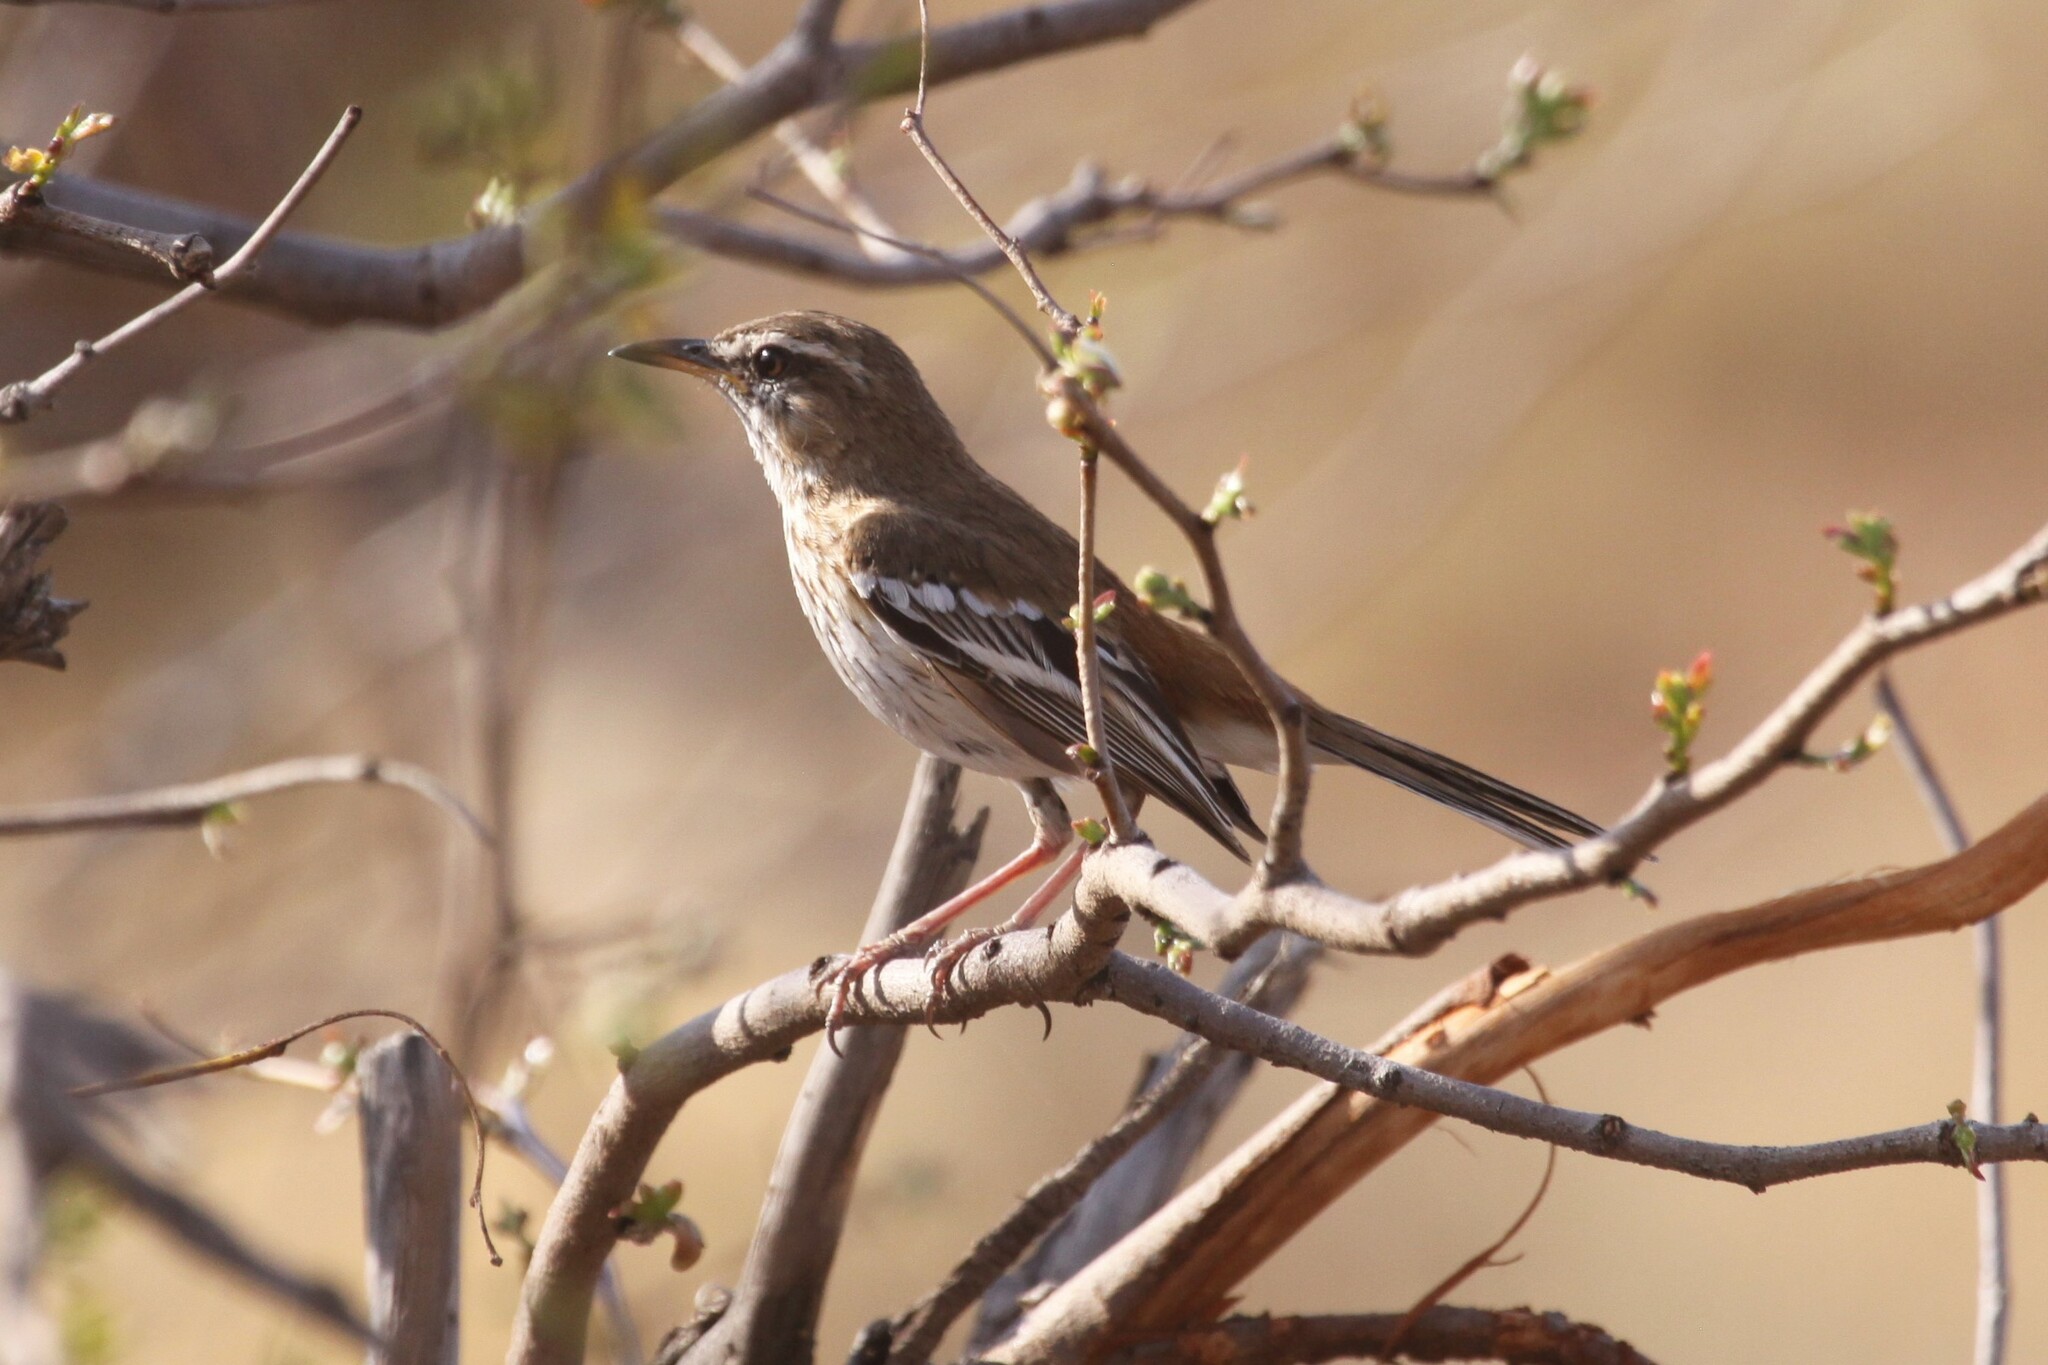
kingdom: Animalia
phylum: Chordata
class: Aves
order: Passeriformes
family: Muscicapidae
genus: Erythropygia
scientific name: Erythropygia leucophrys
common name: White-browed scrub robin
